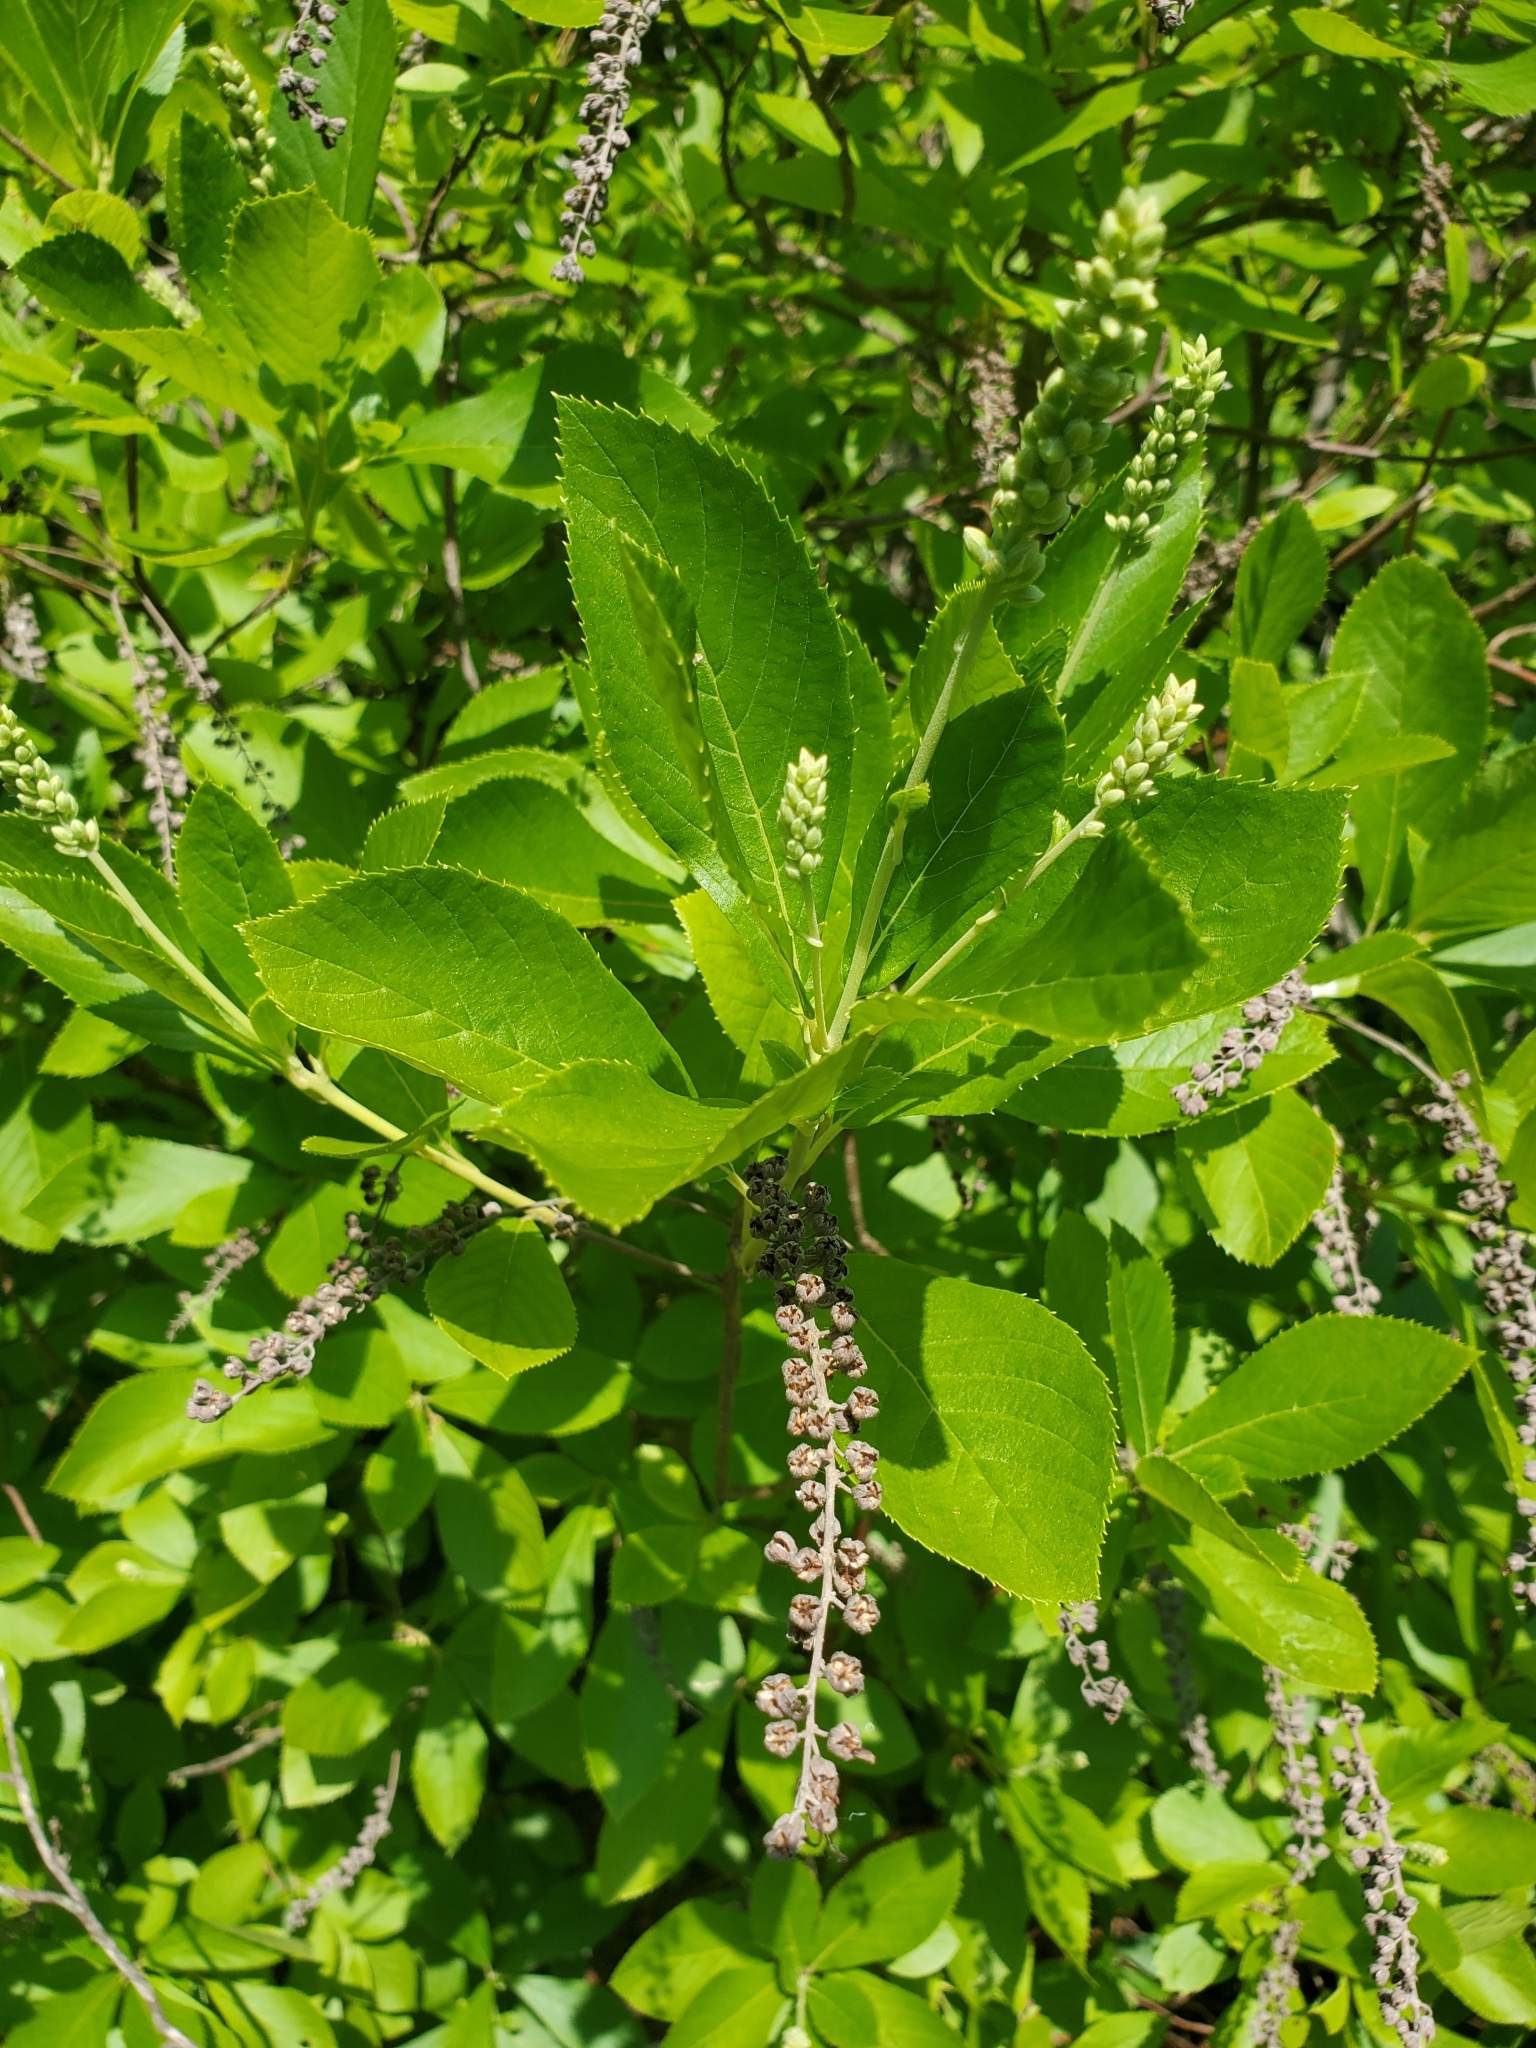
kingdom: Plantae
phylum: Tracheophyta
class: Magnoliopsida
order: Ericales
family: Clethraceae
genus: Clethra
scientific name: Clethra alnifolia
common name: Sweet pepperbush
